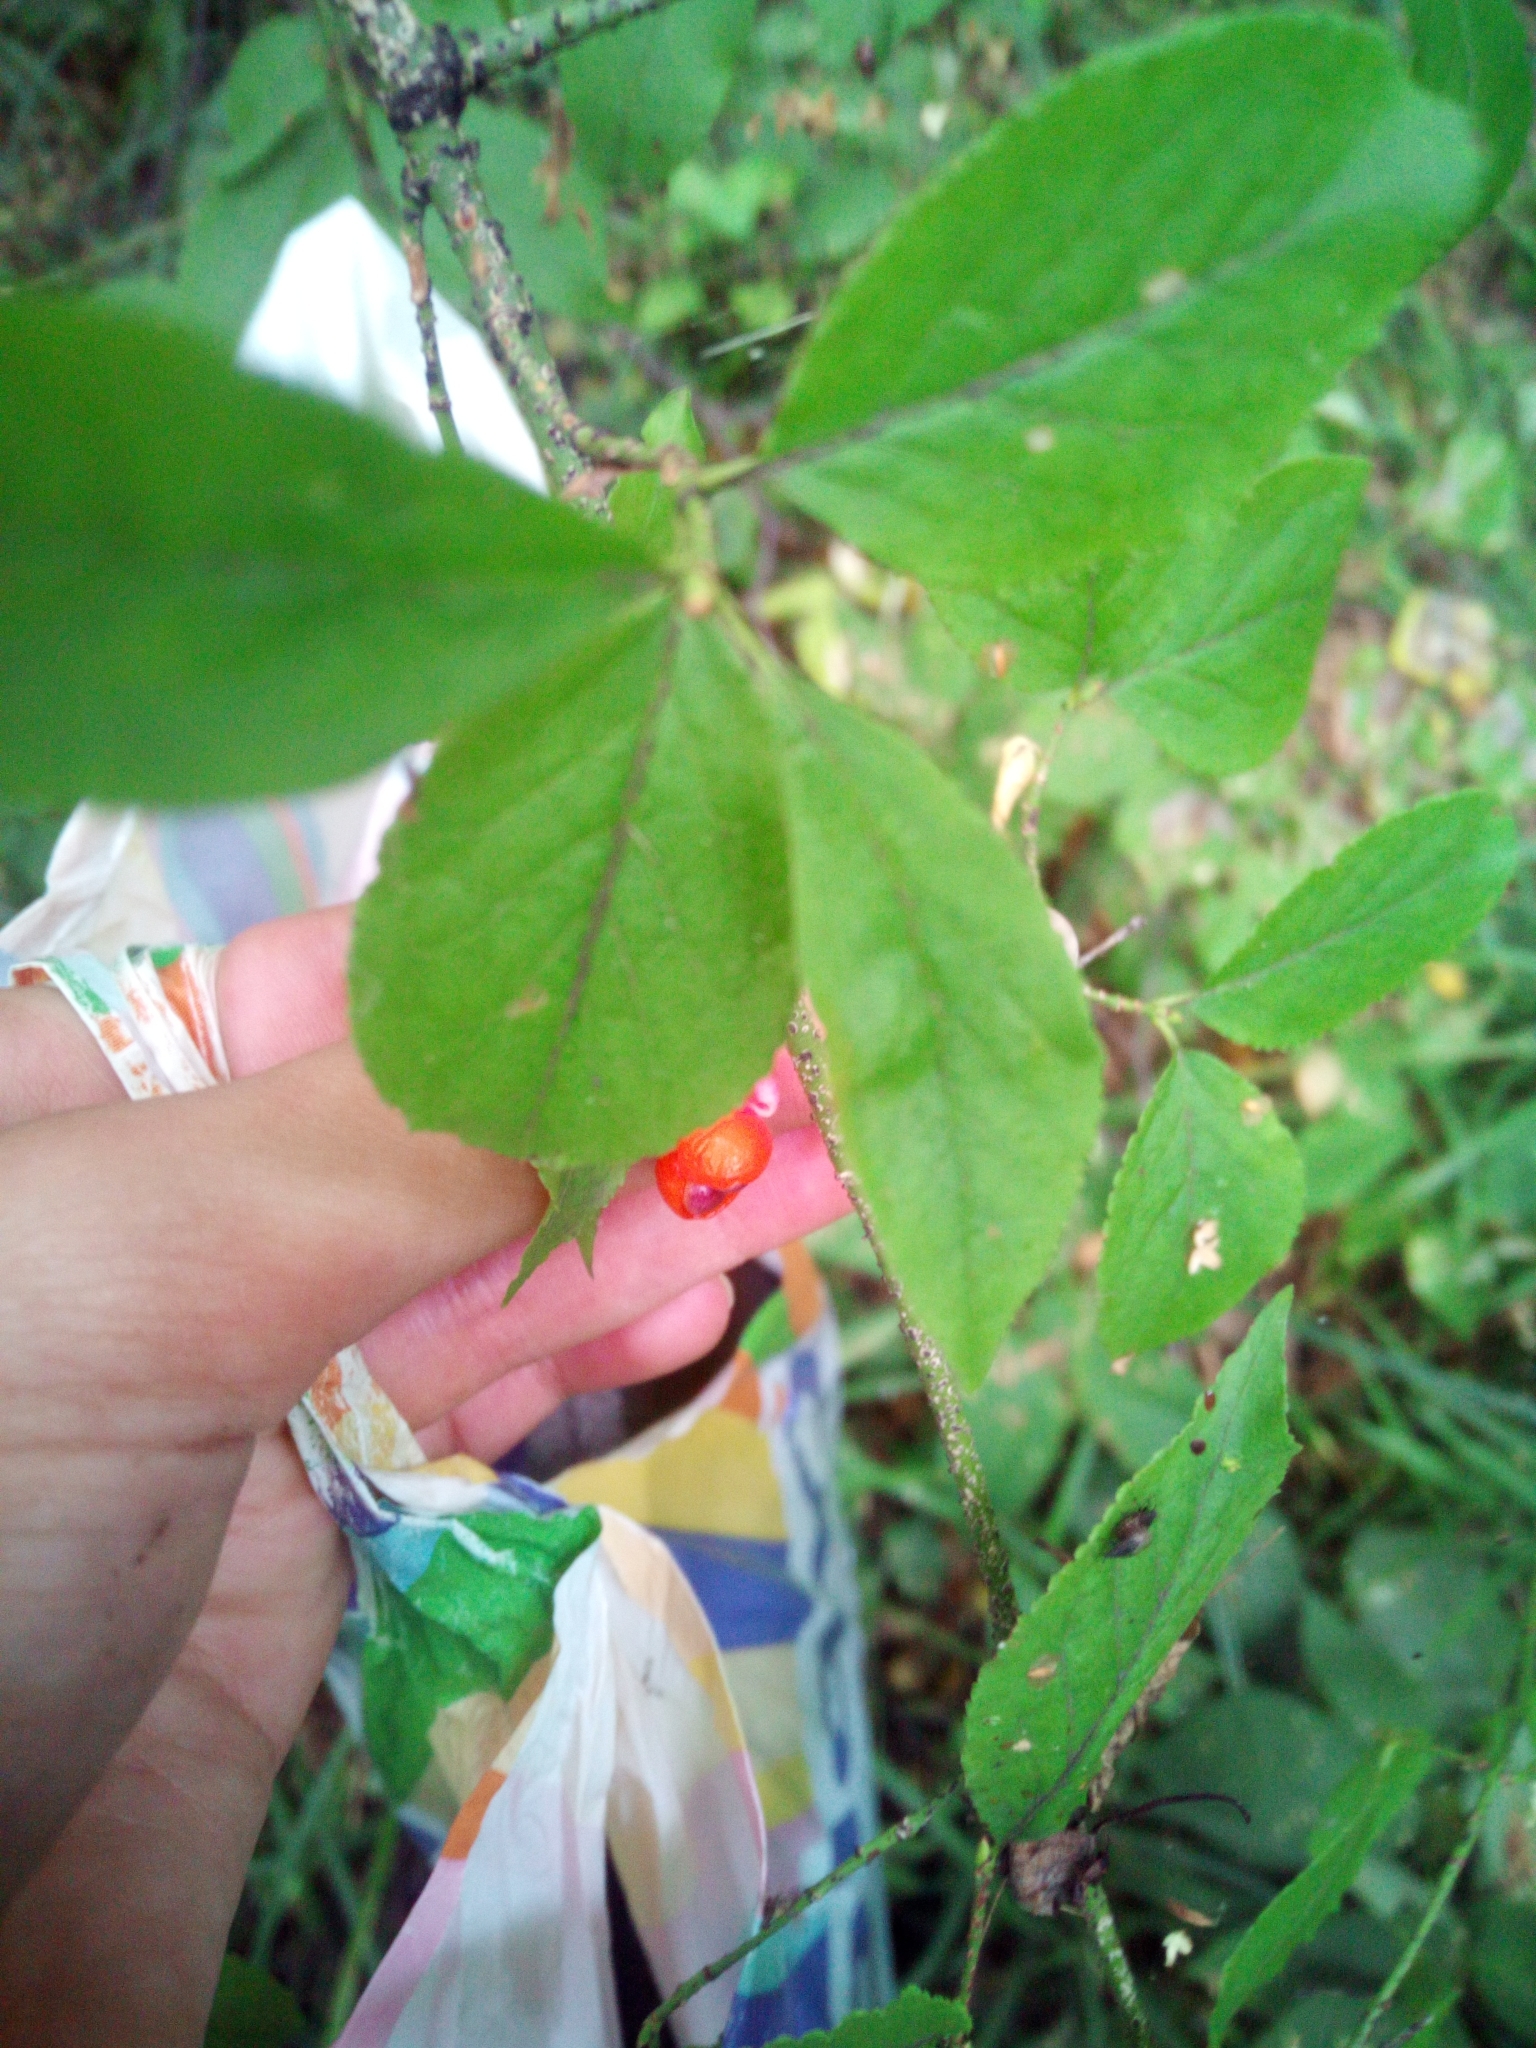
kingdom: Plantae
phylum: Tracheophyta
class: Magnoliopsida
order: Celastrales
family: Celastraceae
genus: Euonymus
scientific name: Euonymus verrucosus
